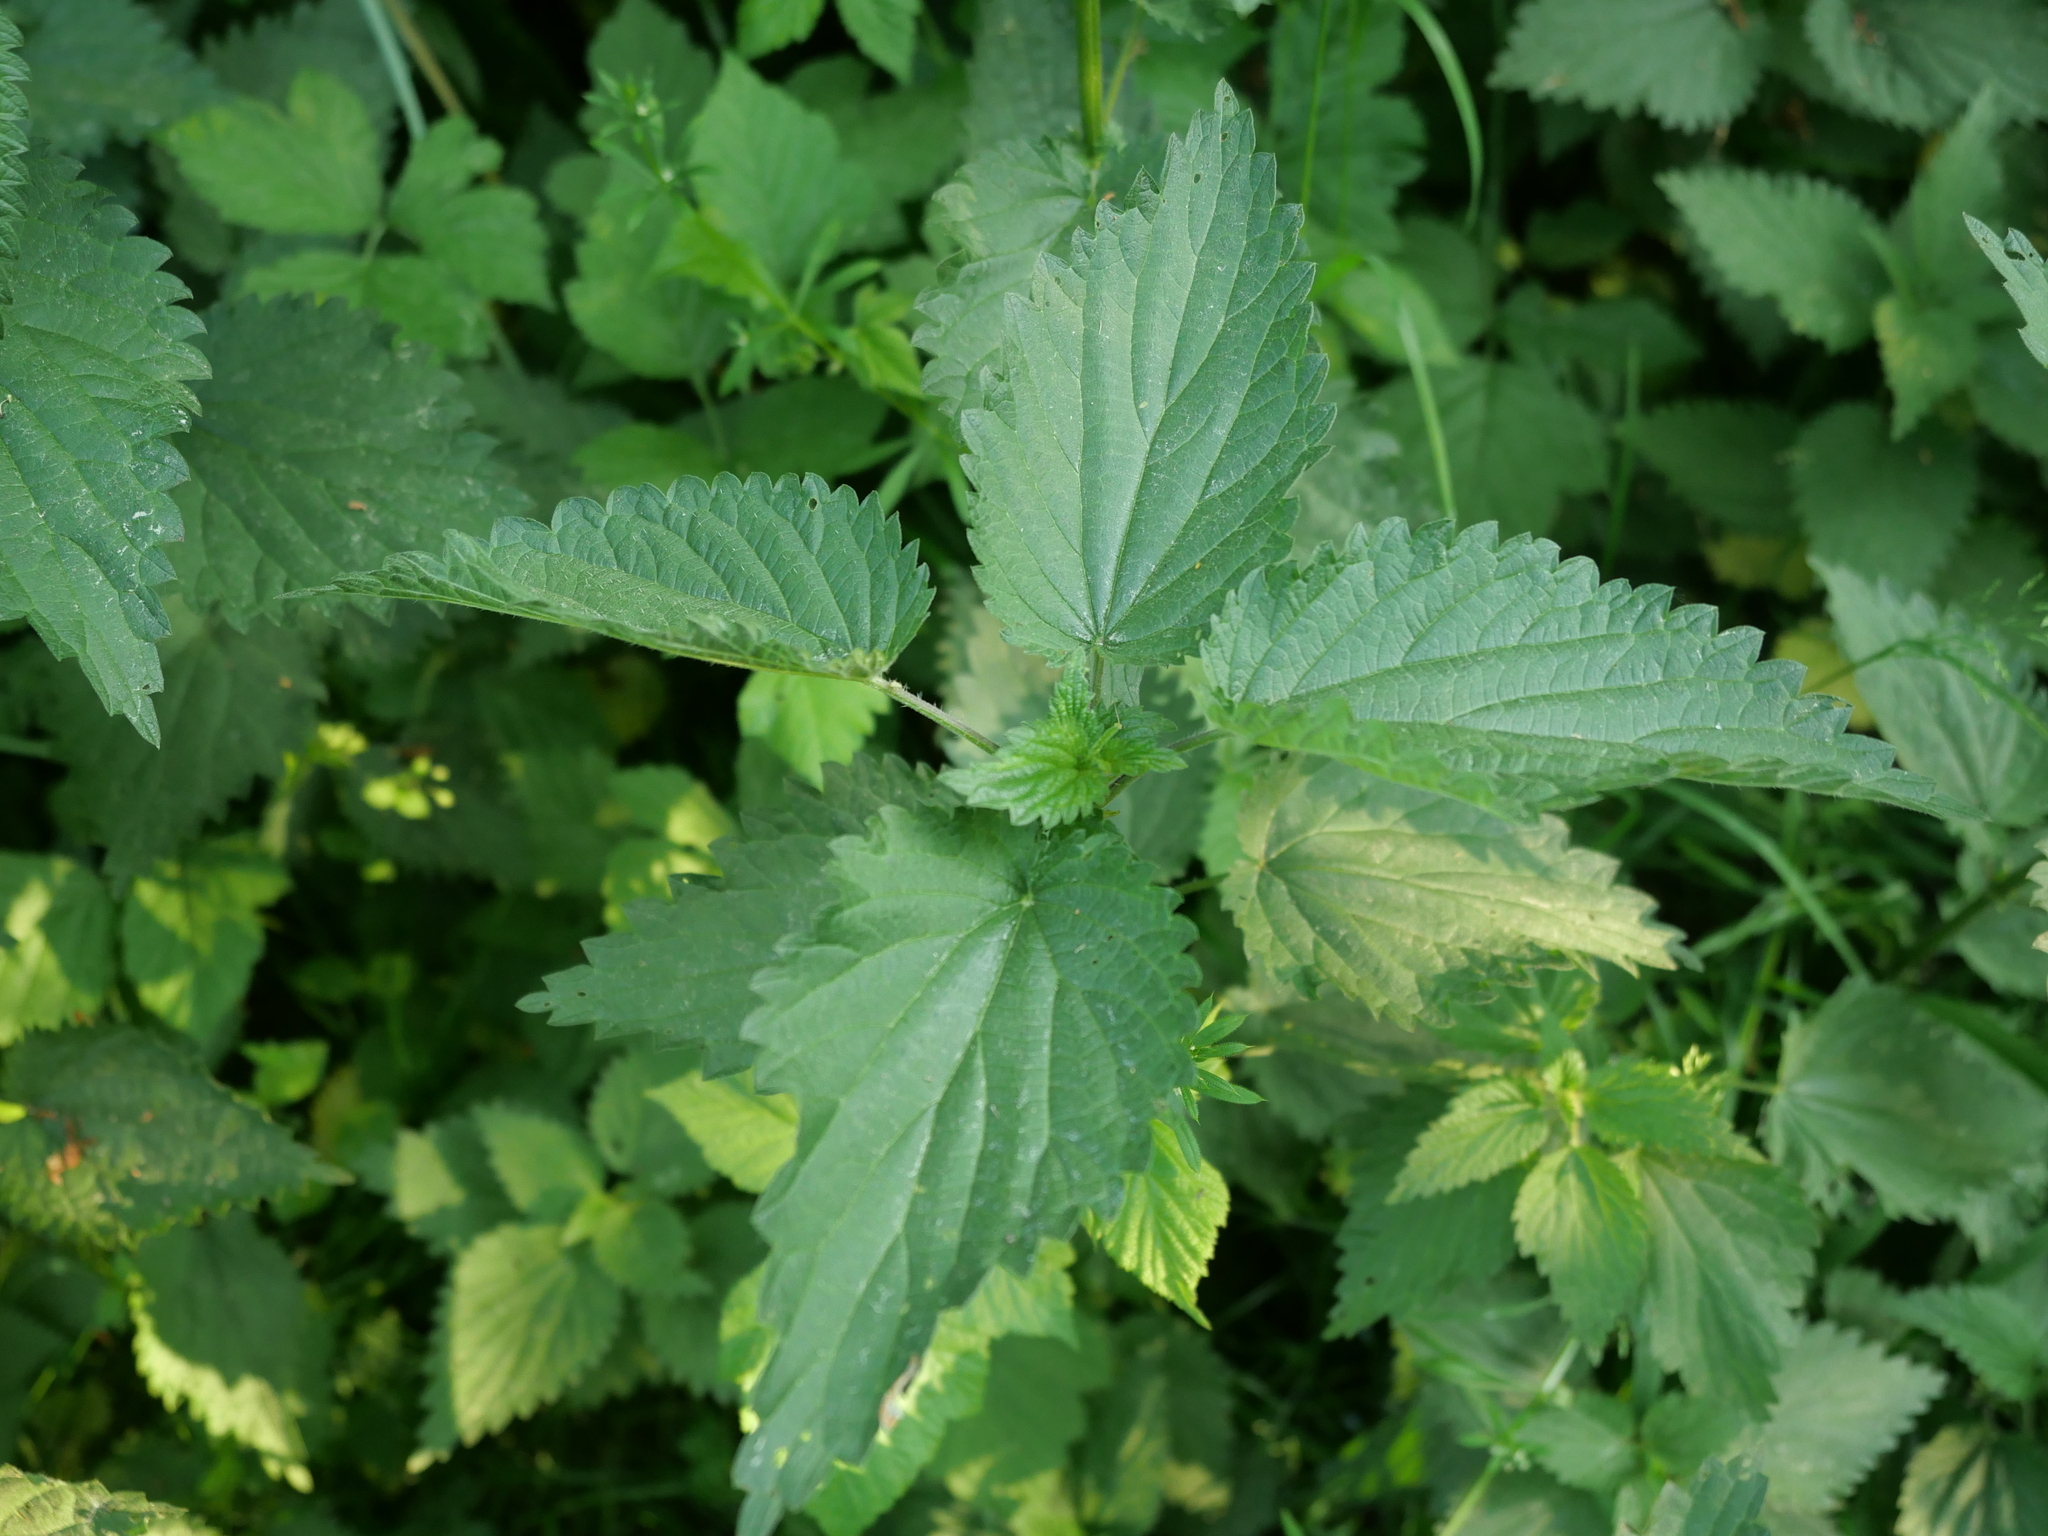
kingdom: Plantae
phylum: Tracheophyta
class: Magnoliopsida
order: Rosales
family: Urticaceae
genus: Urtica
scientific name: Urtica dioica
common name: Common nettle
